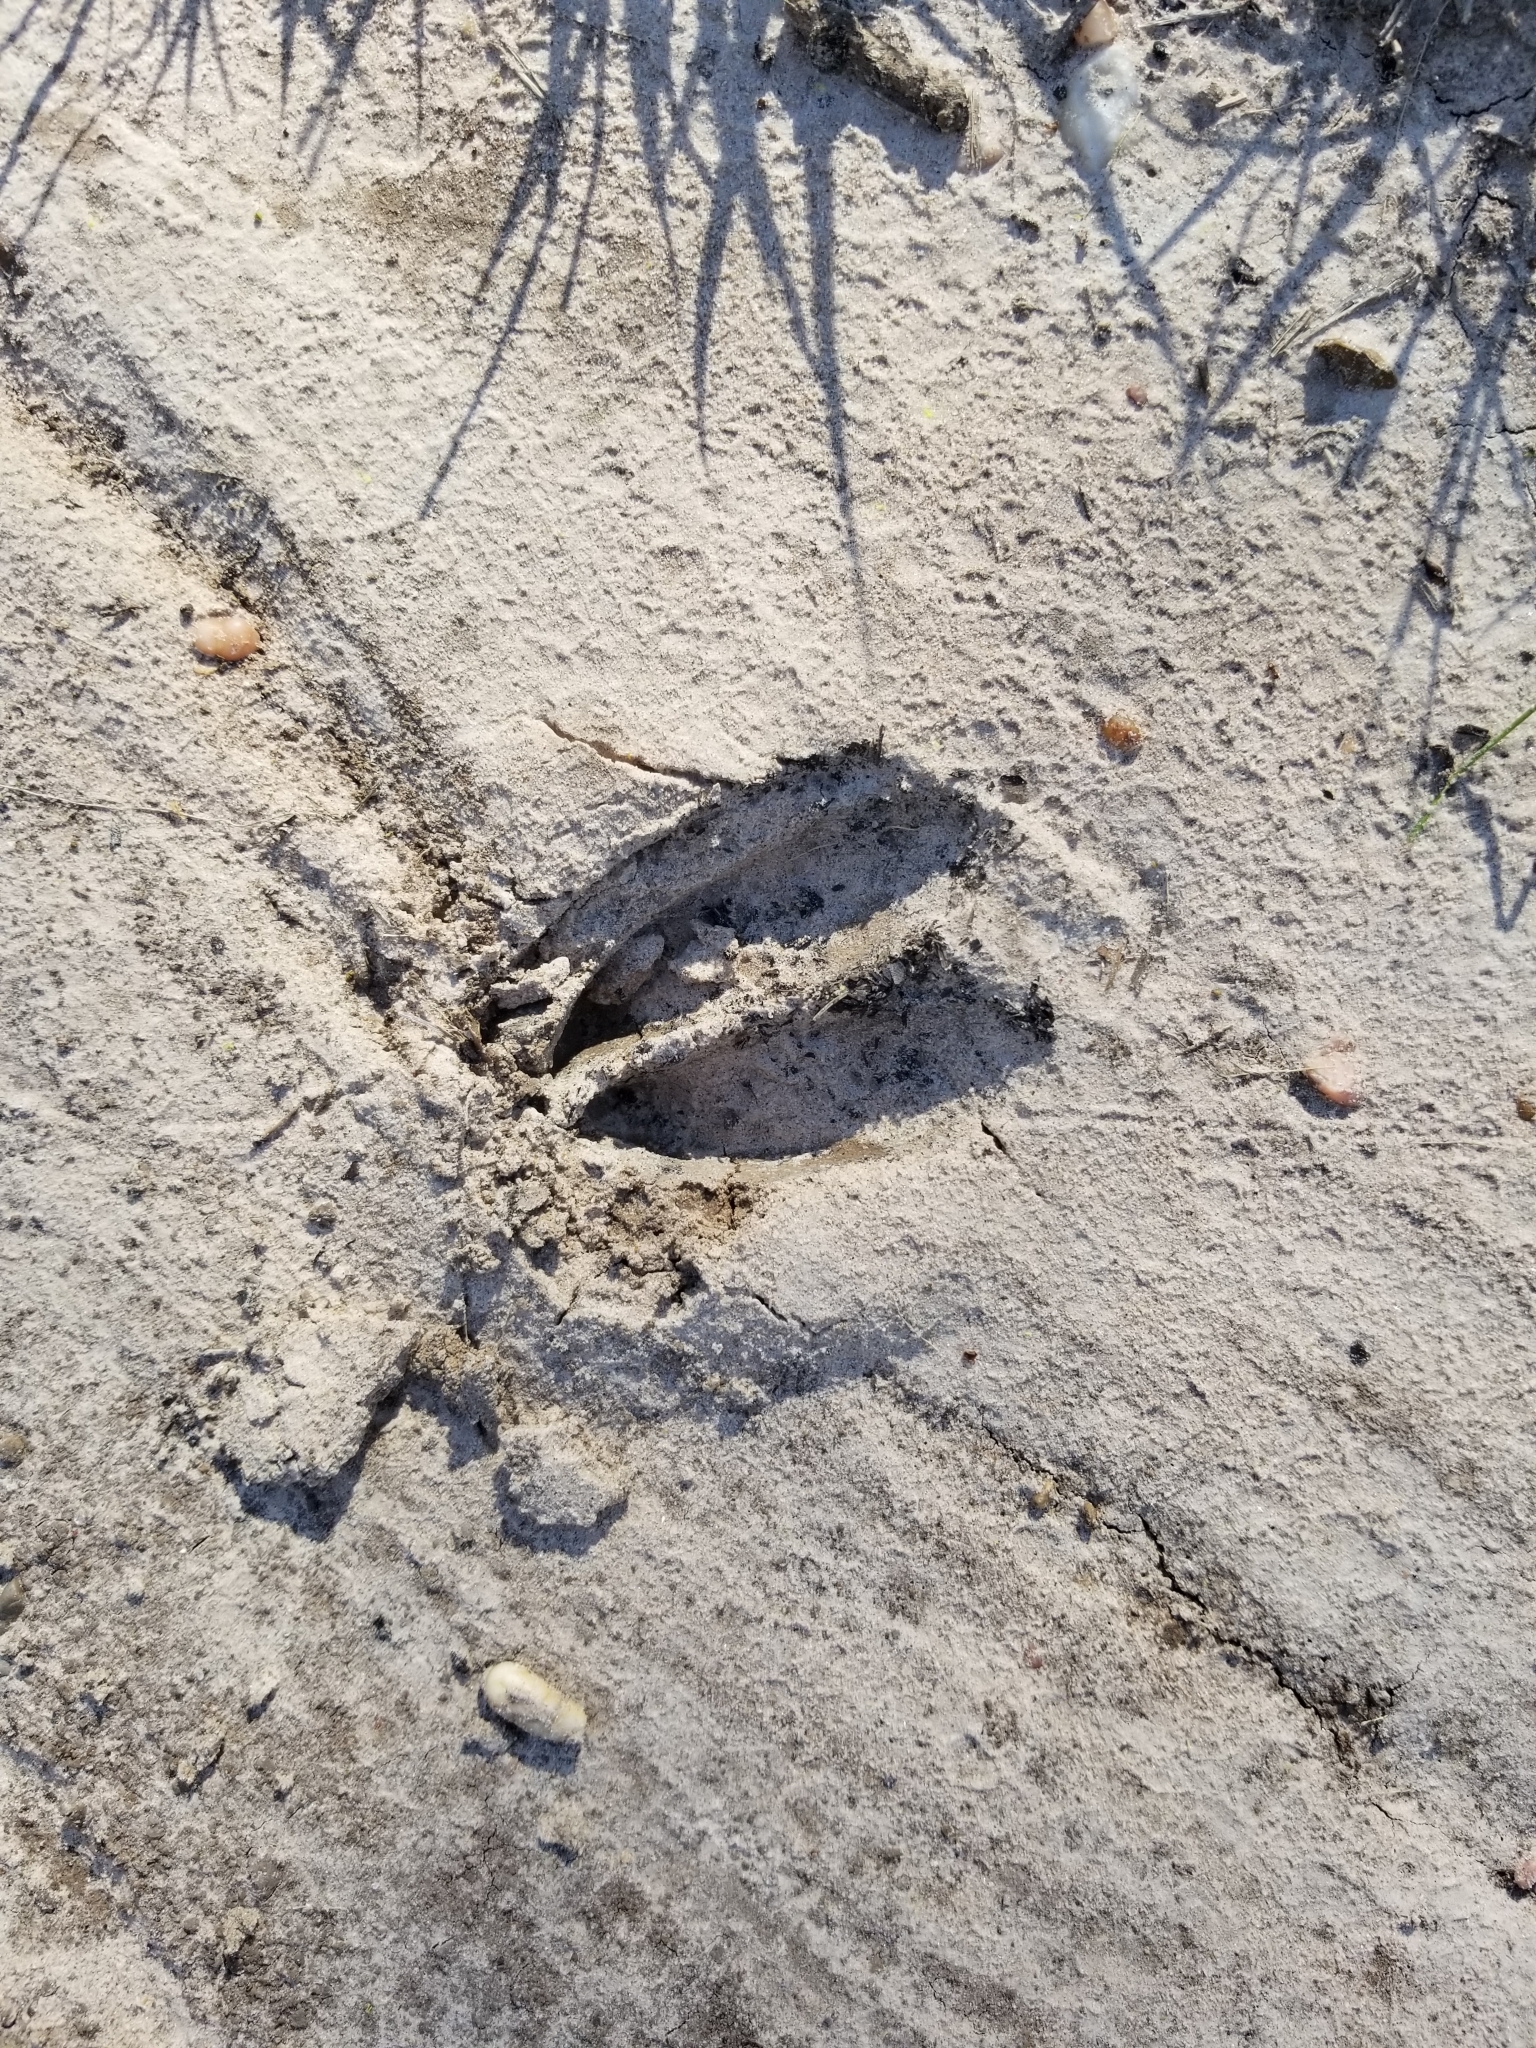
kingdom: Animalia
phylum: Chordata
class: Mammalia
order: Artiodactyla
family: Suidae
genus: Sus
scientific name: Sus scrofa
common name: Wild boar
